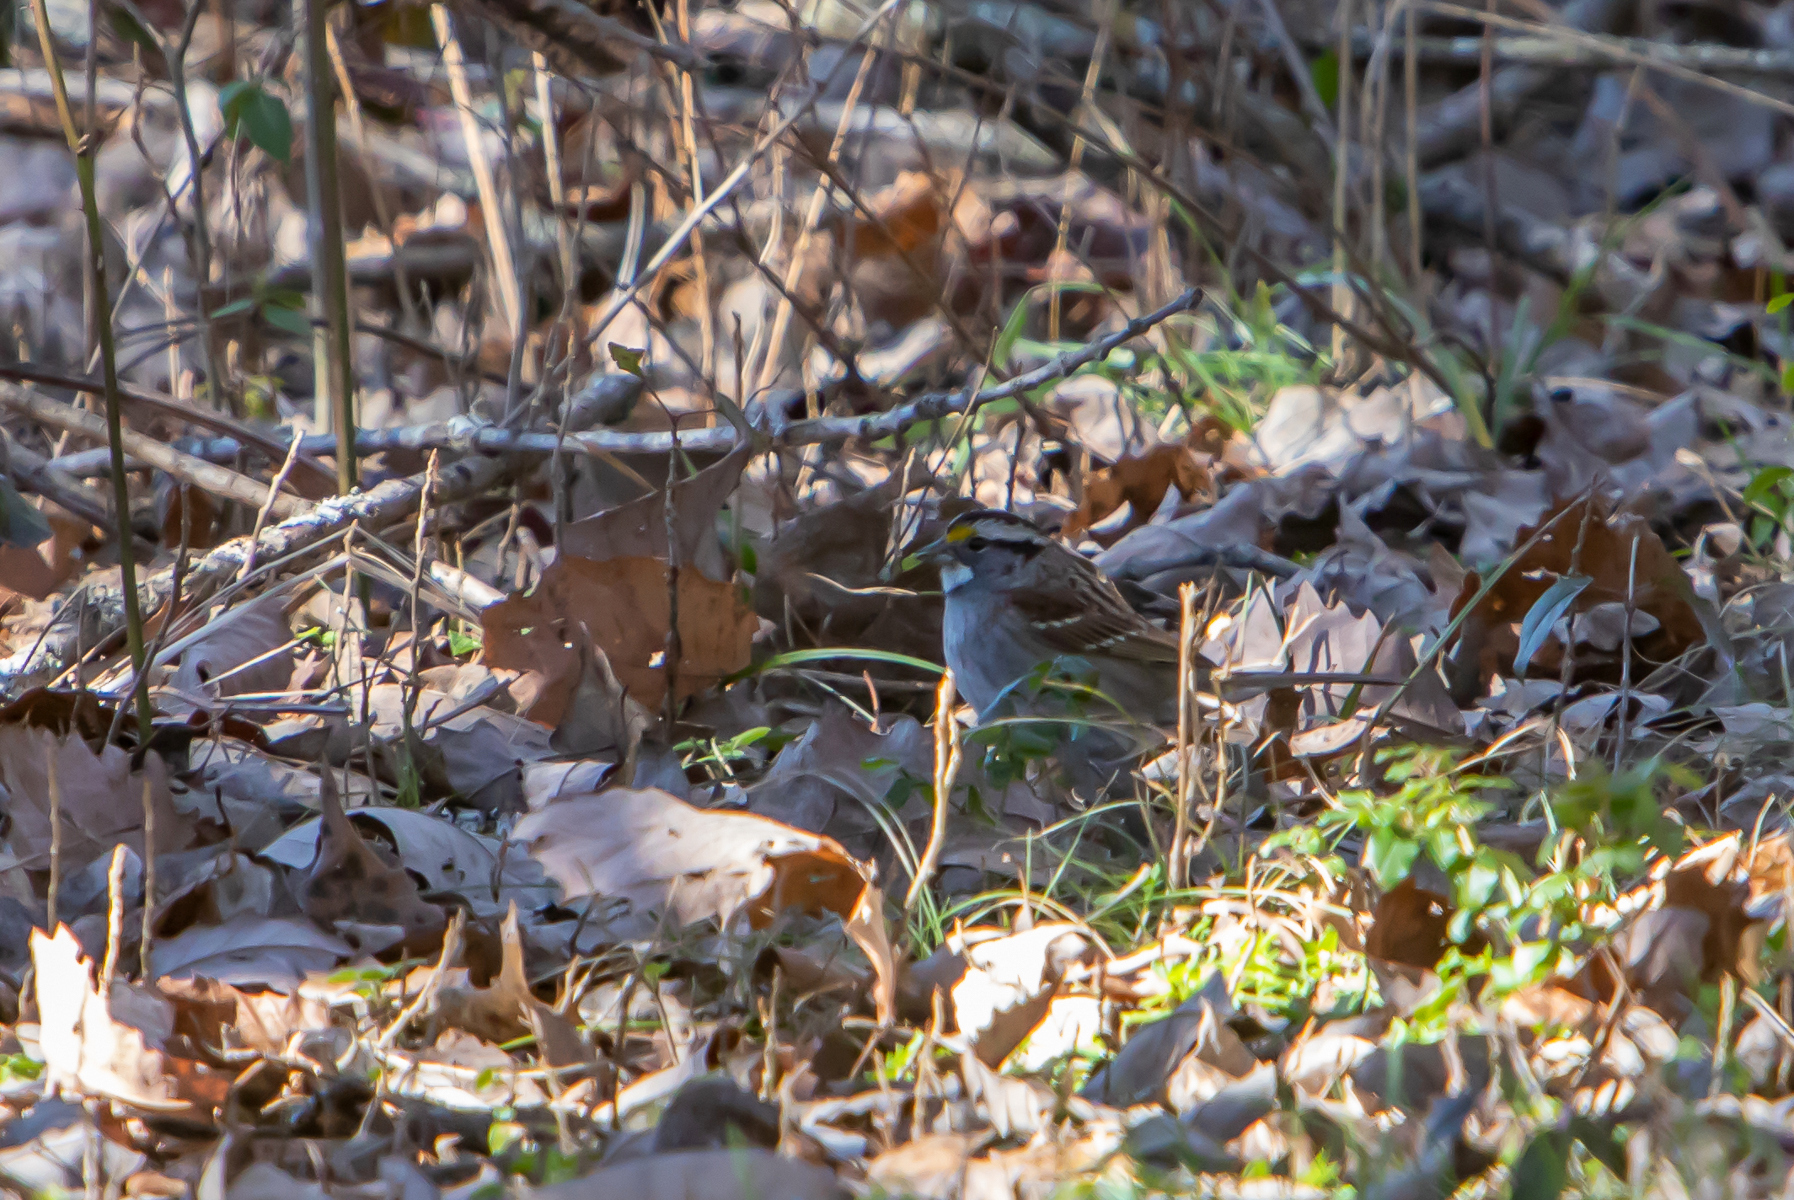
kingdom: Animalia
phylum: Chordata
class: Aves
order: Passeriformes
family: Passerellidae
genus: Zonotrichia
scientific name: Zonotrichia albicollis
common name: White-throated sparrow
